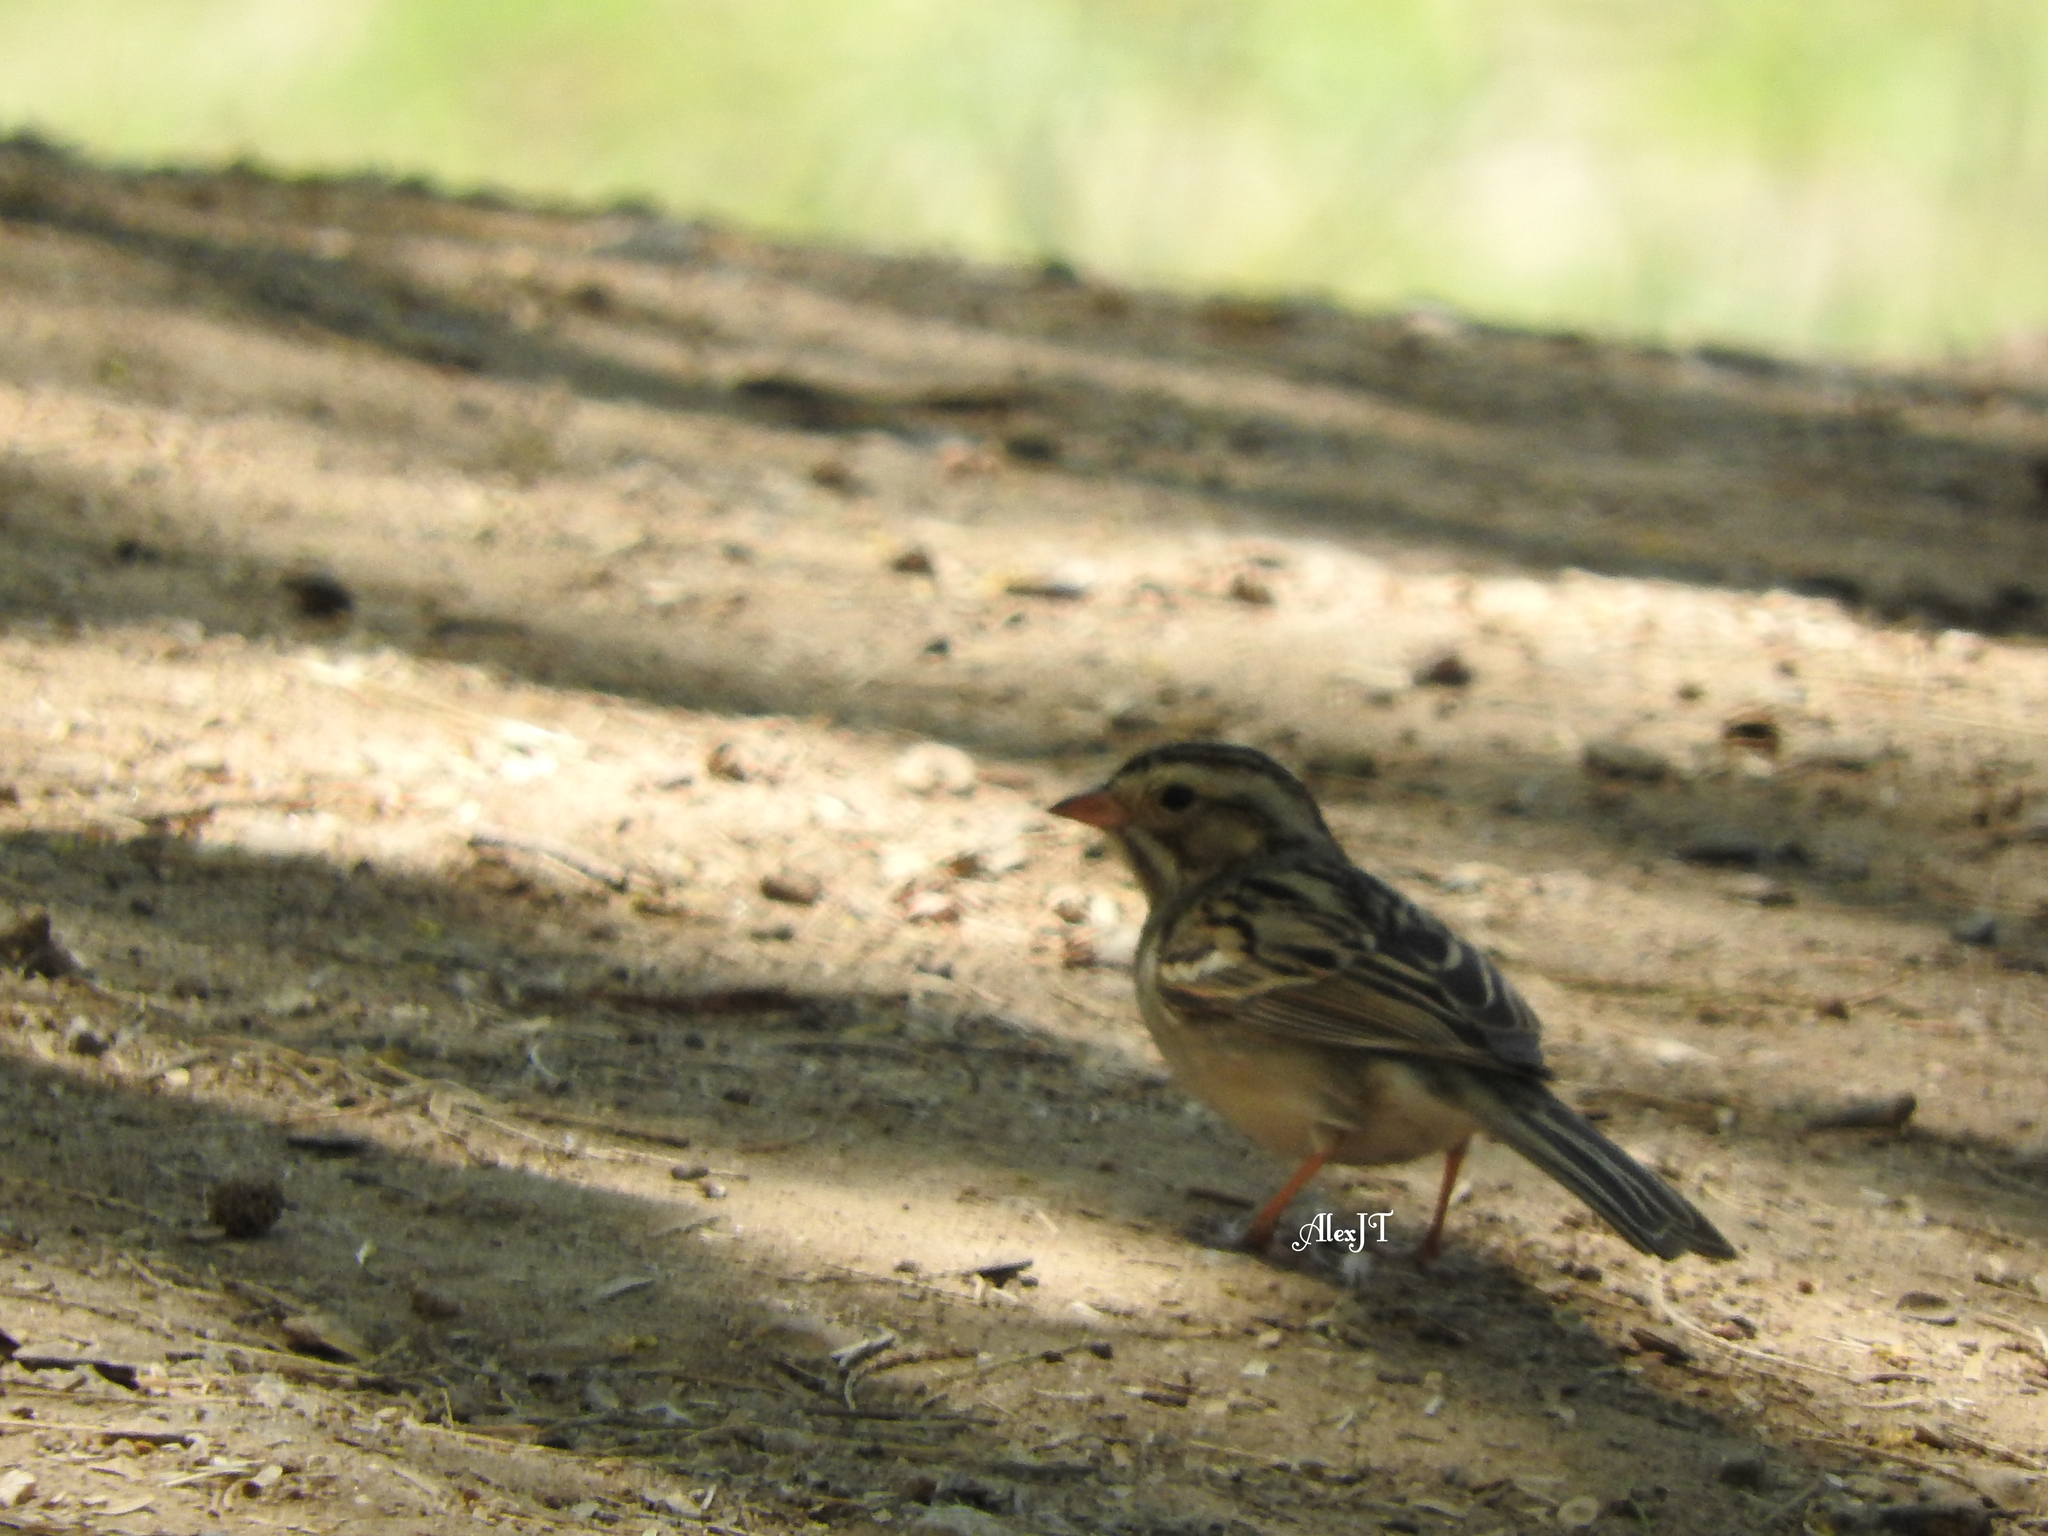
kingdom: Animalia
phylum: Chordata
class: Aves
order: Passeriformes
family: Passerellidae
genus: Spizella
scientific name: Spizella pallida
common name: Clay-colored sparrow
